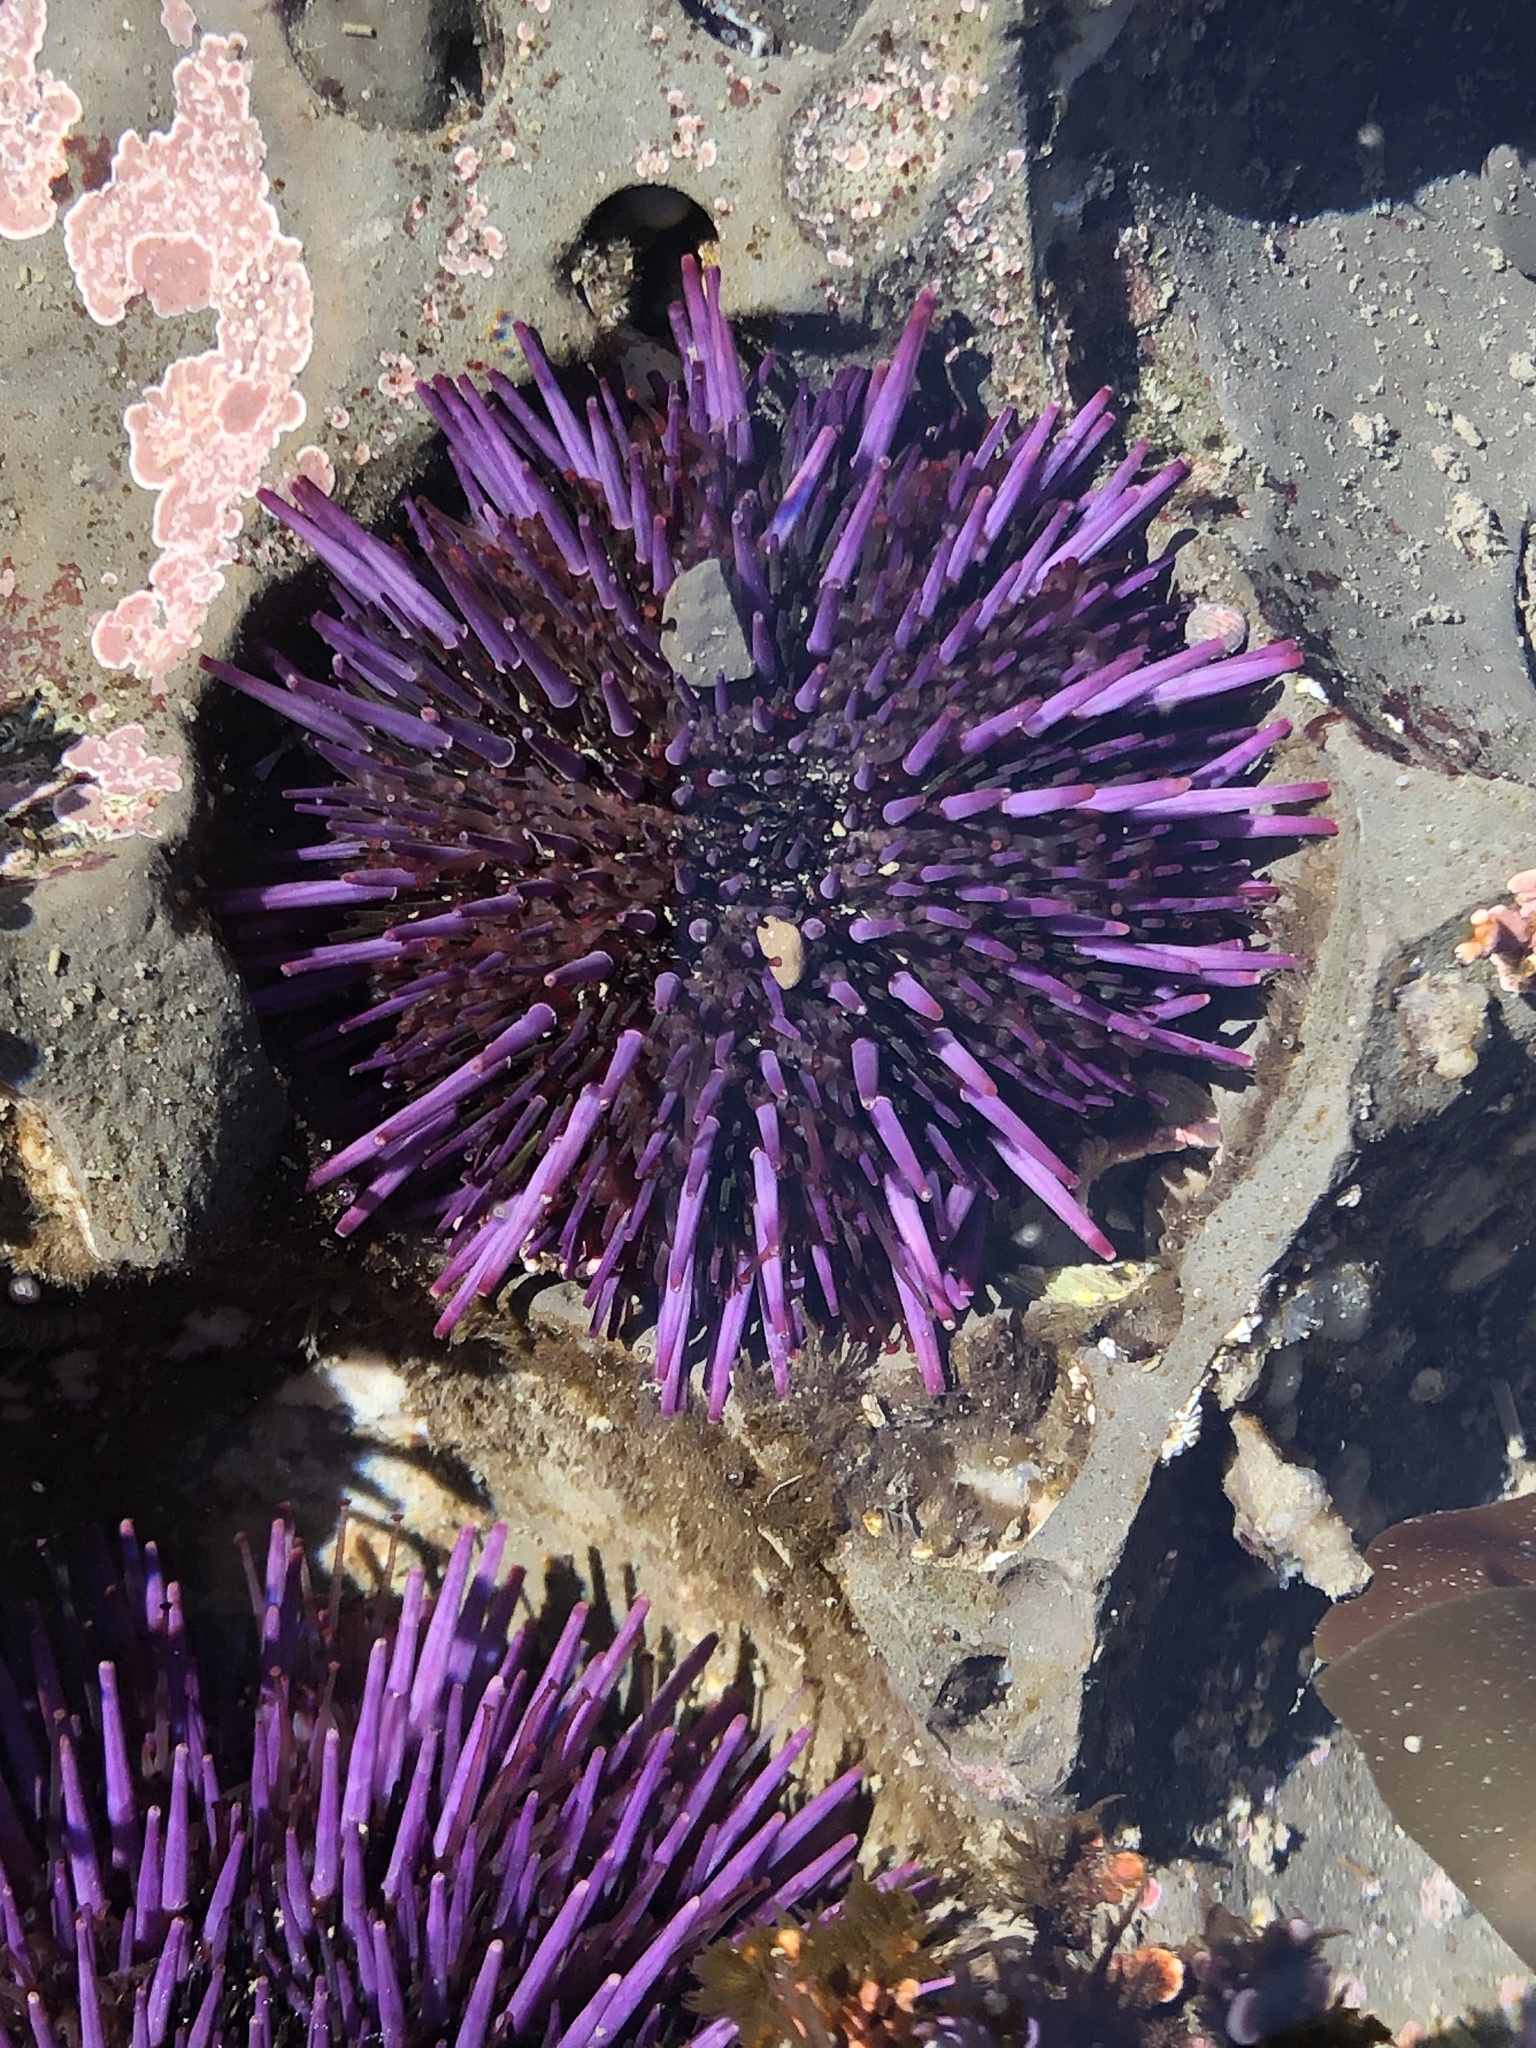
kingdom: Animalia
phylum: Echinodermata
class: Echinoidea
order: Camarodonta
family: Strongylocentrotidae
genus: Strongylocentrotus
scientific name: Strongylocentrotus purpuratus
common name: Purple sea urchin
